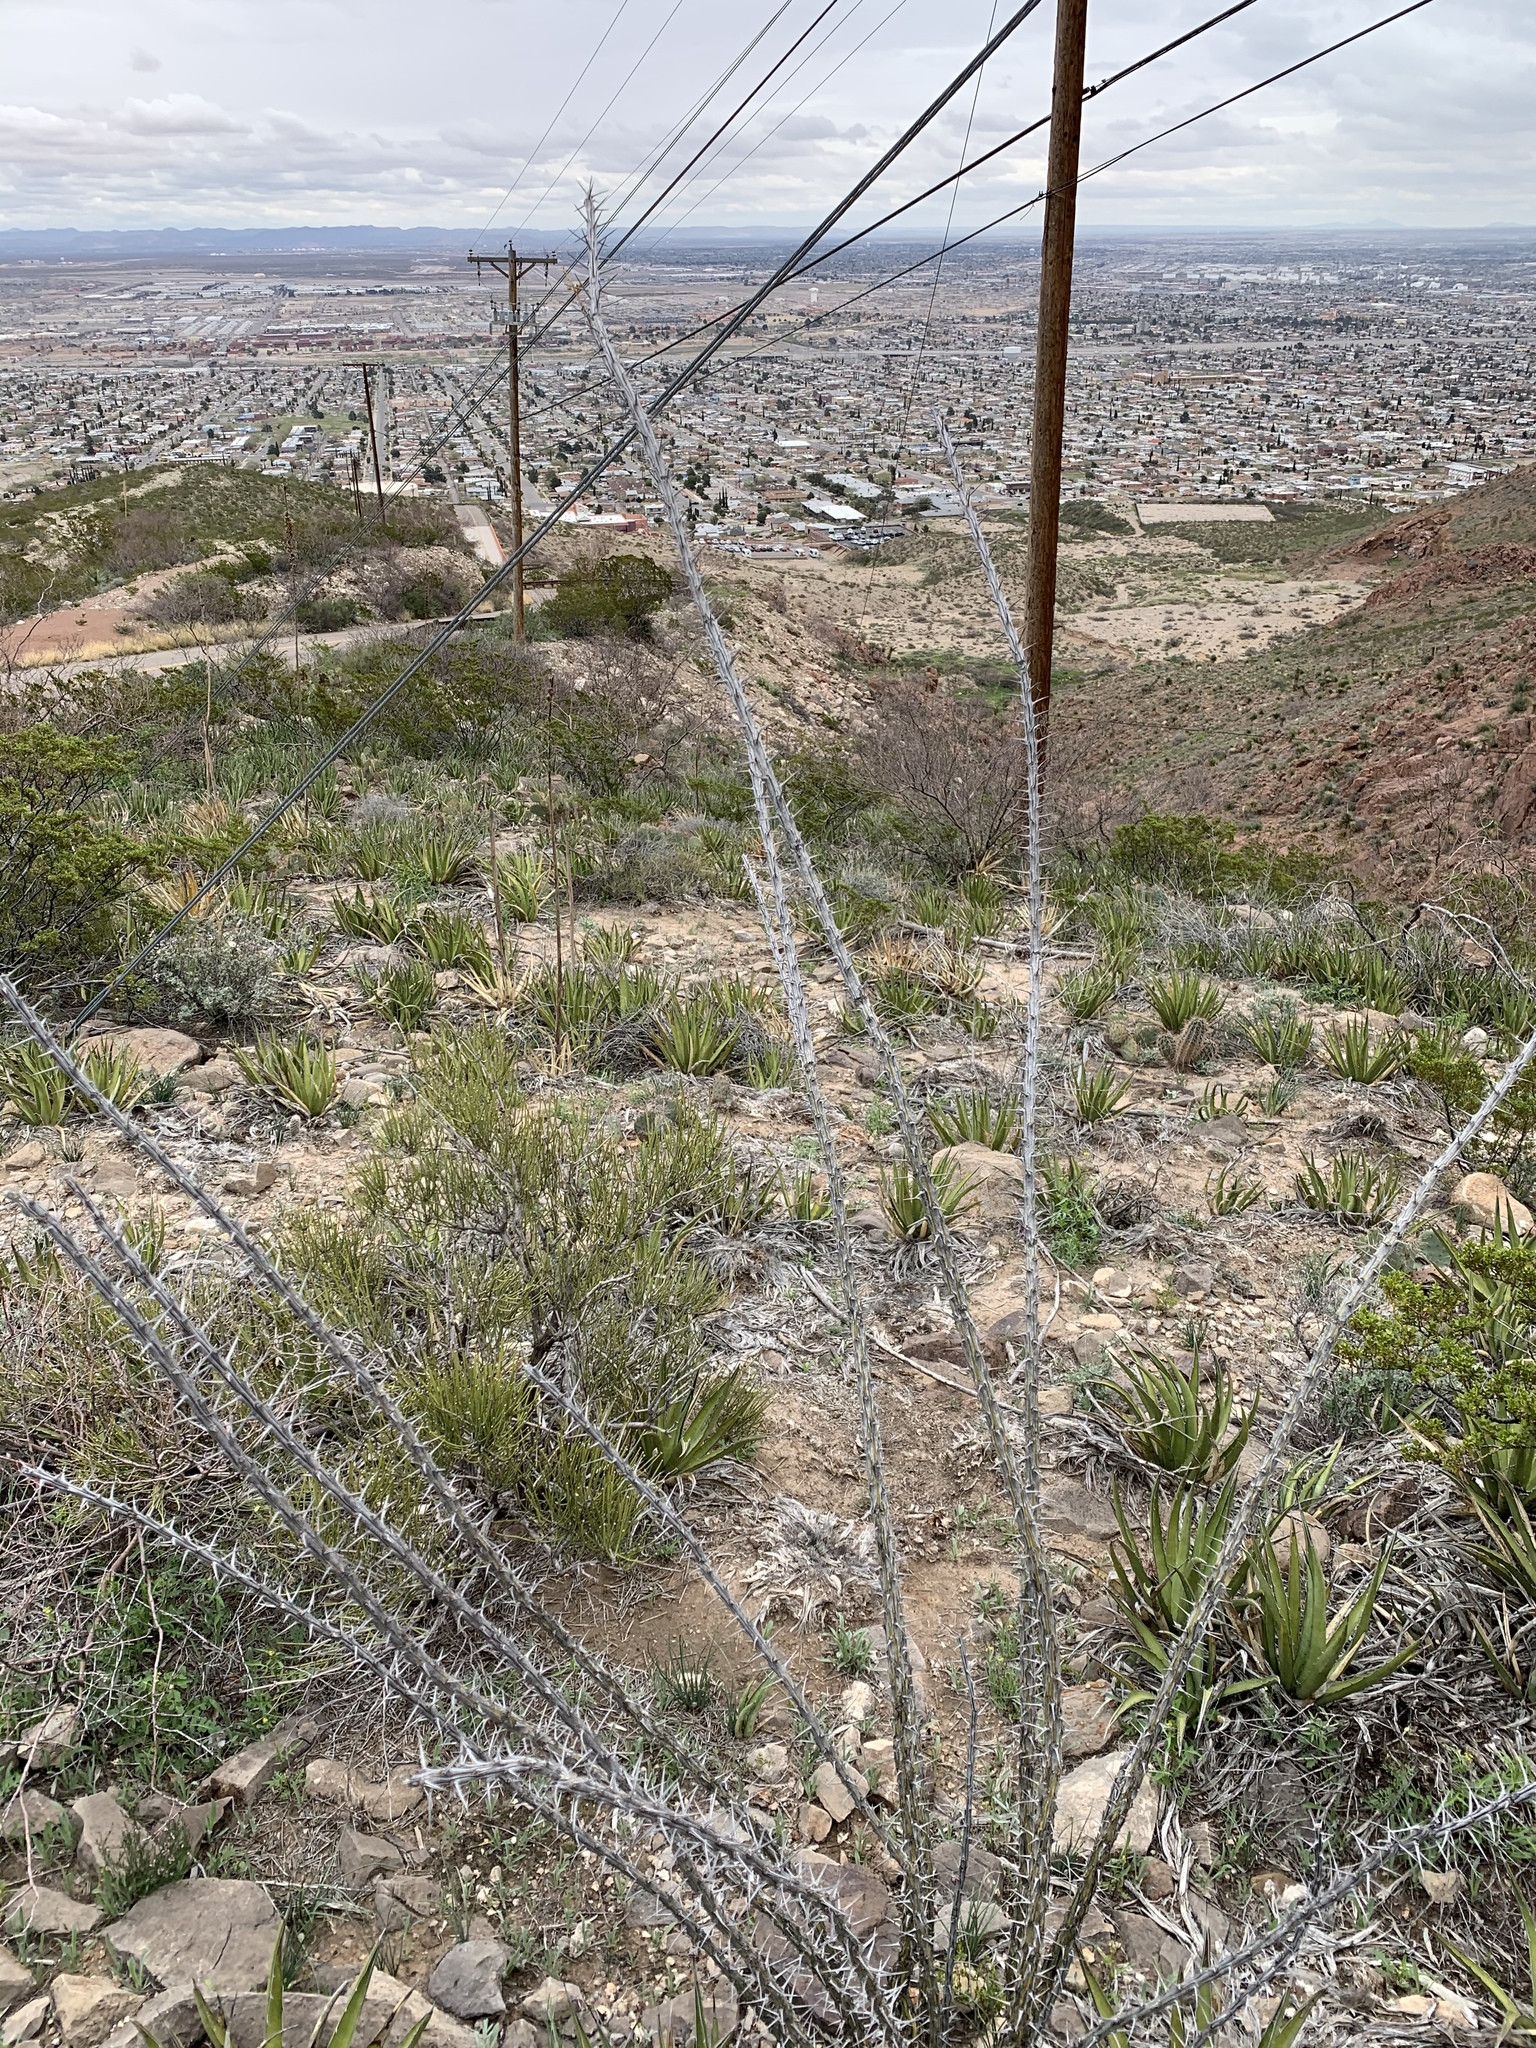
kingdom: Plantae
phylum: Tracheophyta
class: Magnoliopsida
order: Ericales
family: Fouquieriaceae
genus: Fouquieria
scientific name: Fouquieria splendens
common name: Vine-cactus
